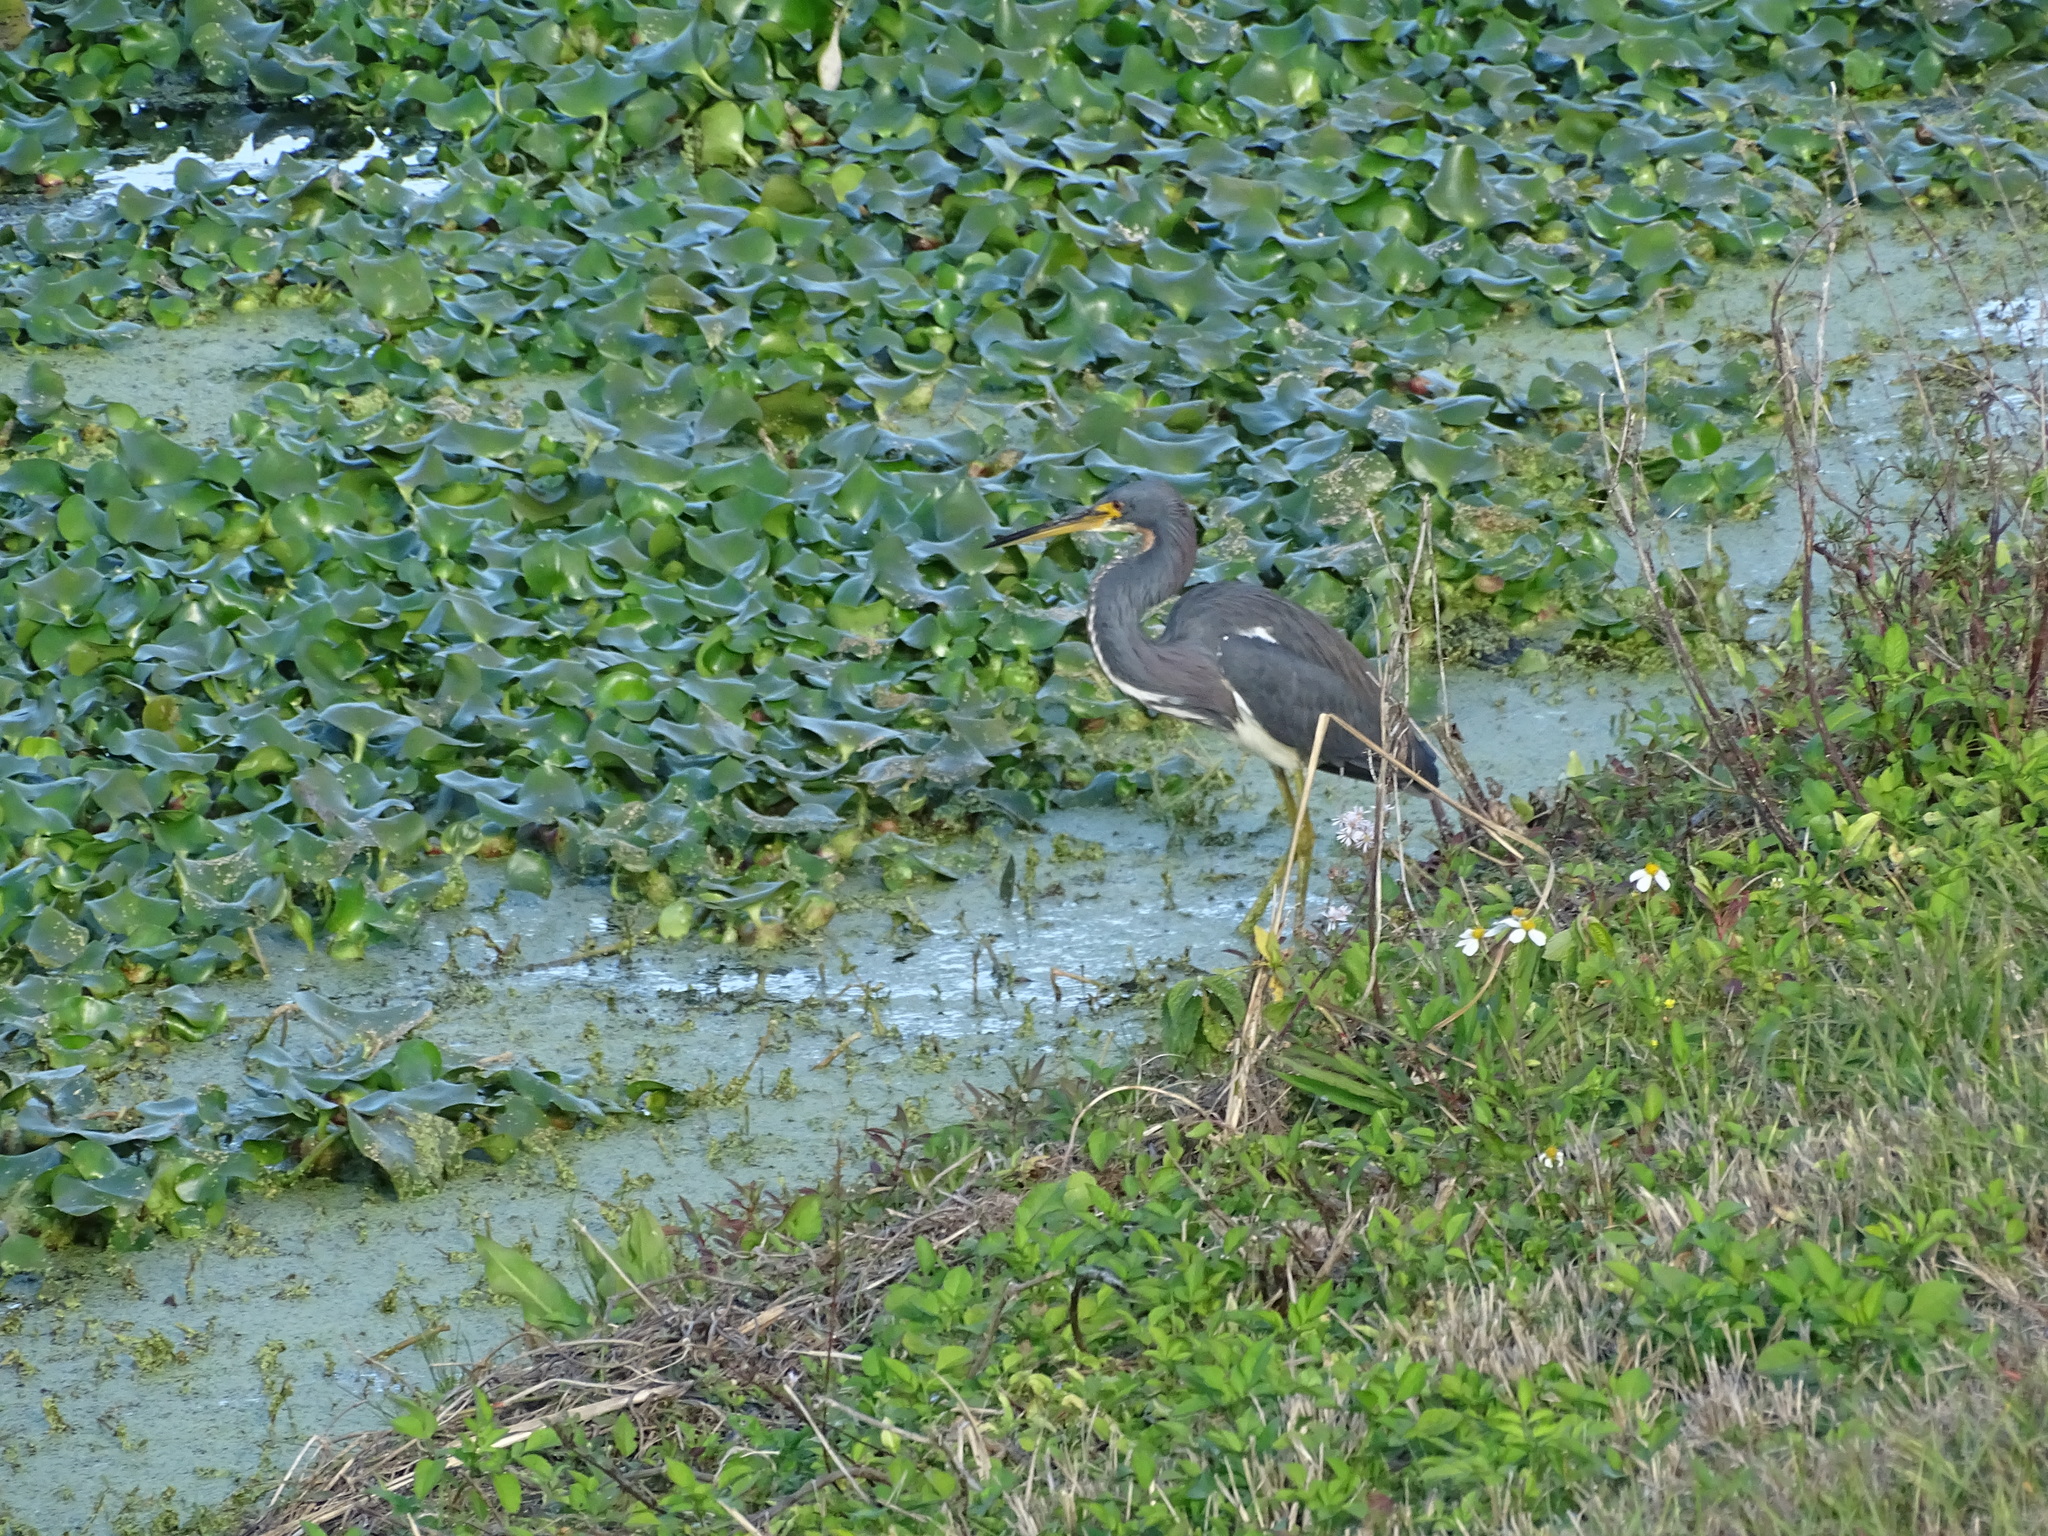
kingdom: Animalia
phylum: Chordata
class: Aves
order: Pelecaniformes
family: Ardeidae
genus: Egretta
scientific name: Egretta tricolor
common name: Tricolored heron
